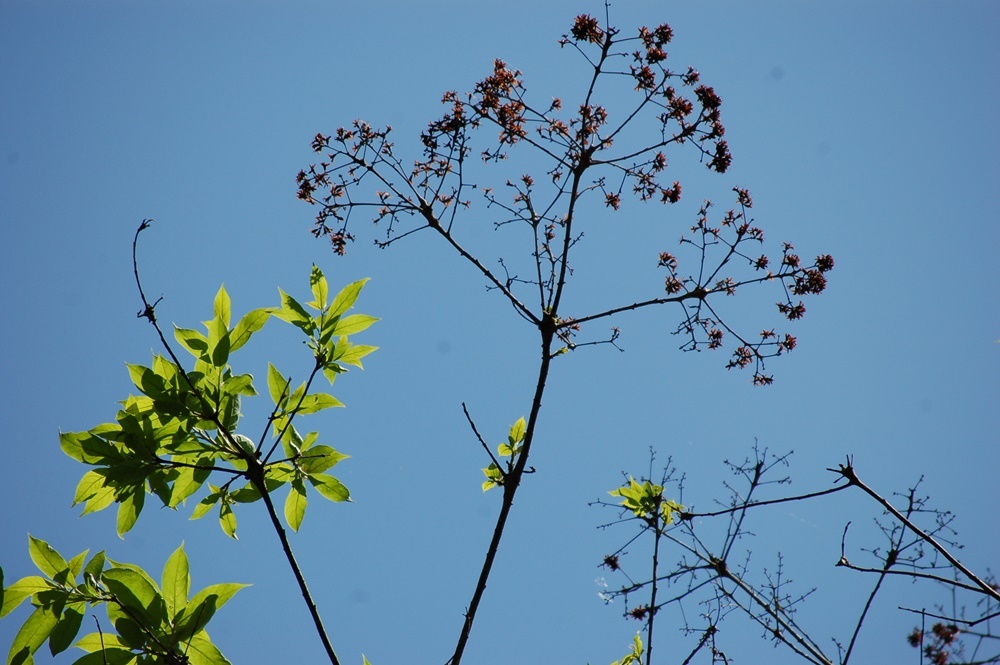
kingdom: Plantae
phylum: Tracheophyta
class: Magnoliopsida
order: Boraginales
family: Cordiaceae
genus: Cordia
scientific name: Cordia alliodora
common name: Spanish elm
